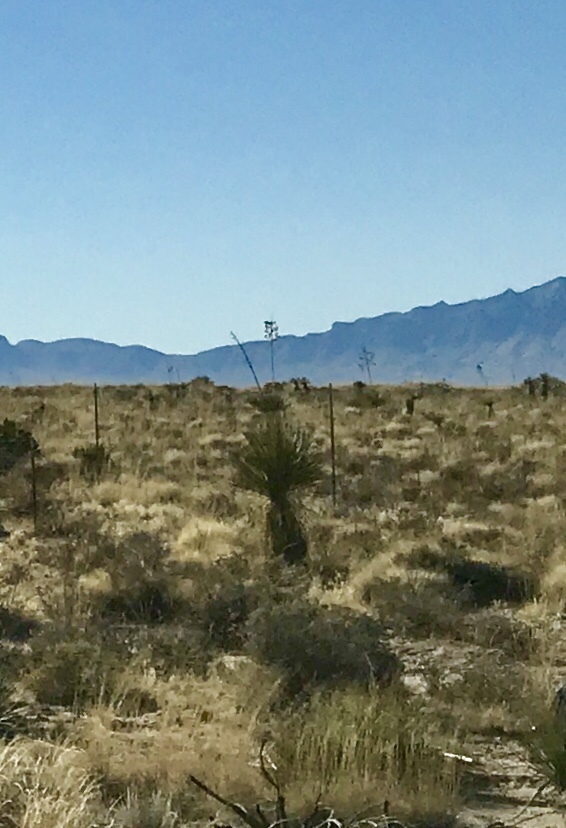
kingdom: Plantae
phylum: Tracheophyta
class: Liliopsida
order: Asparagales
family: Asparagaceae
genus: Yucca
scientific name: Yucca elata
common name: Palmella
